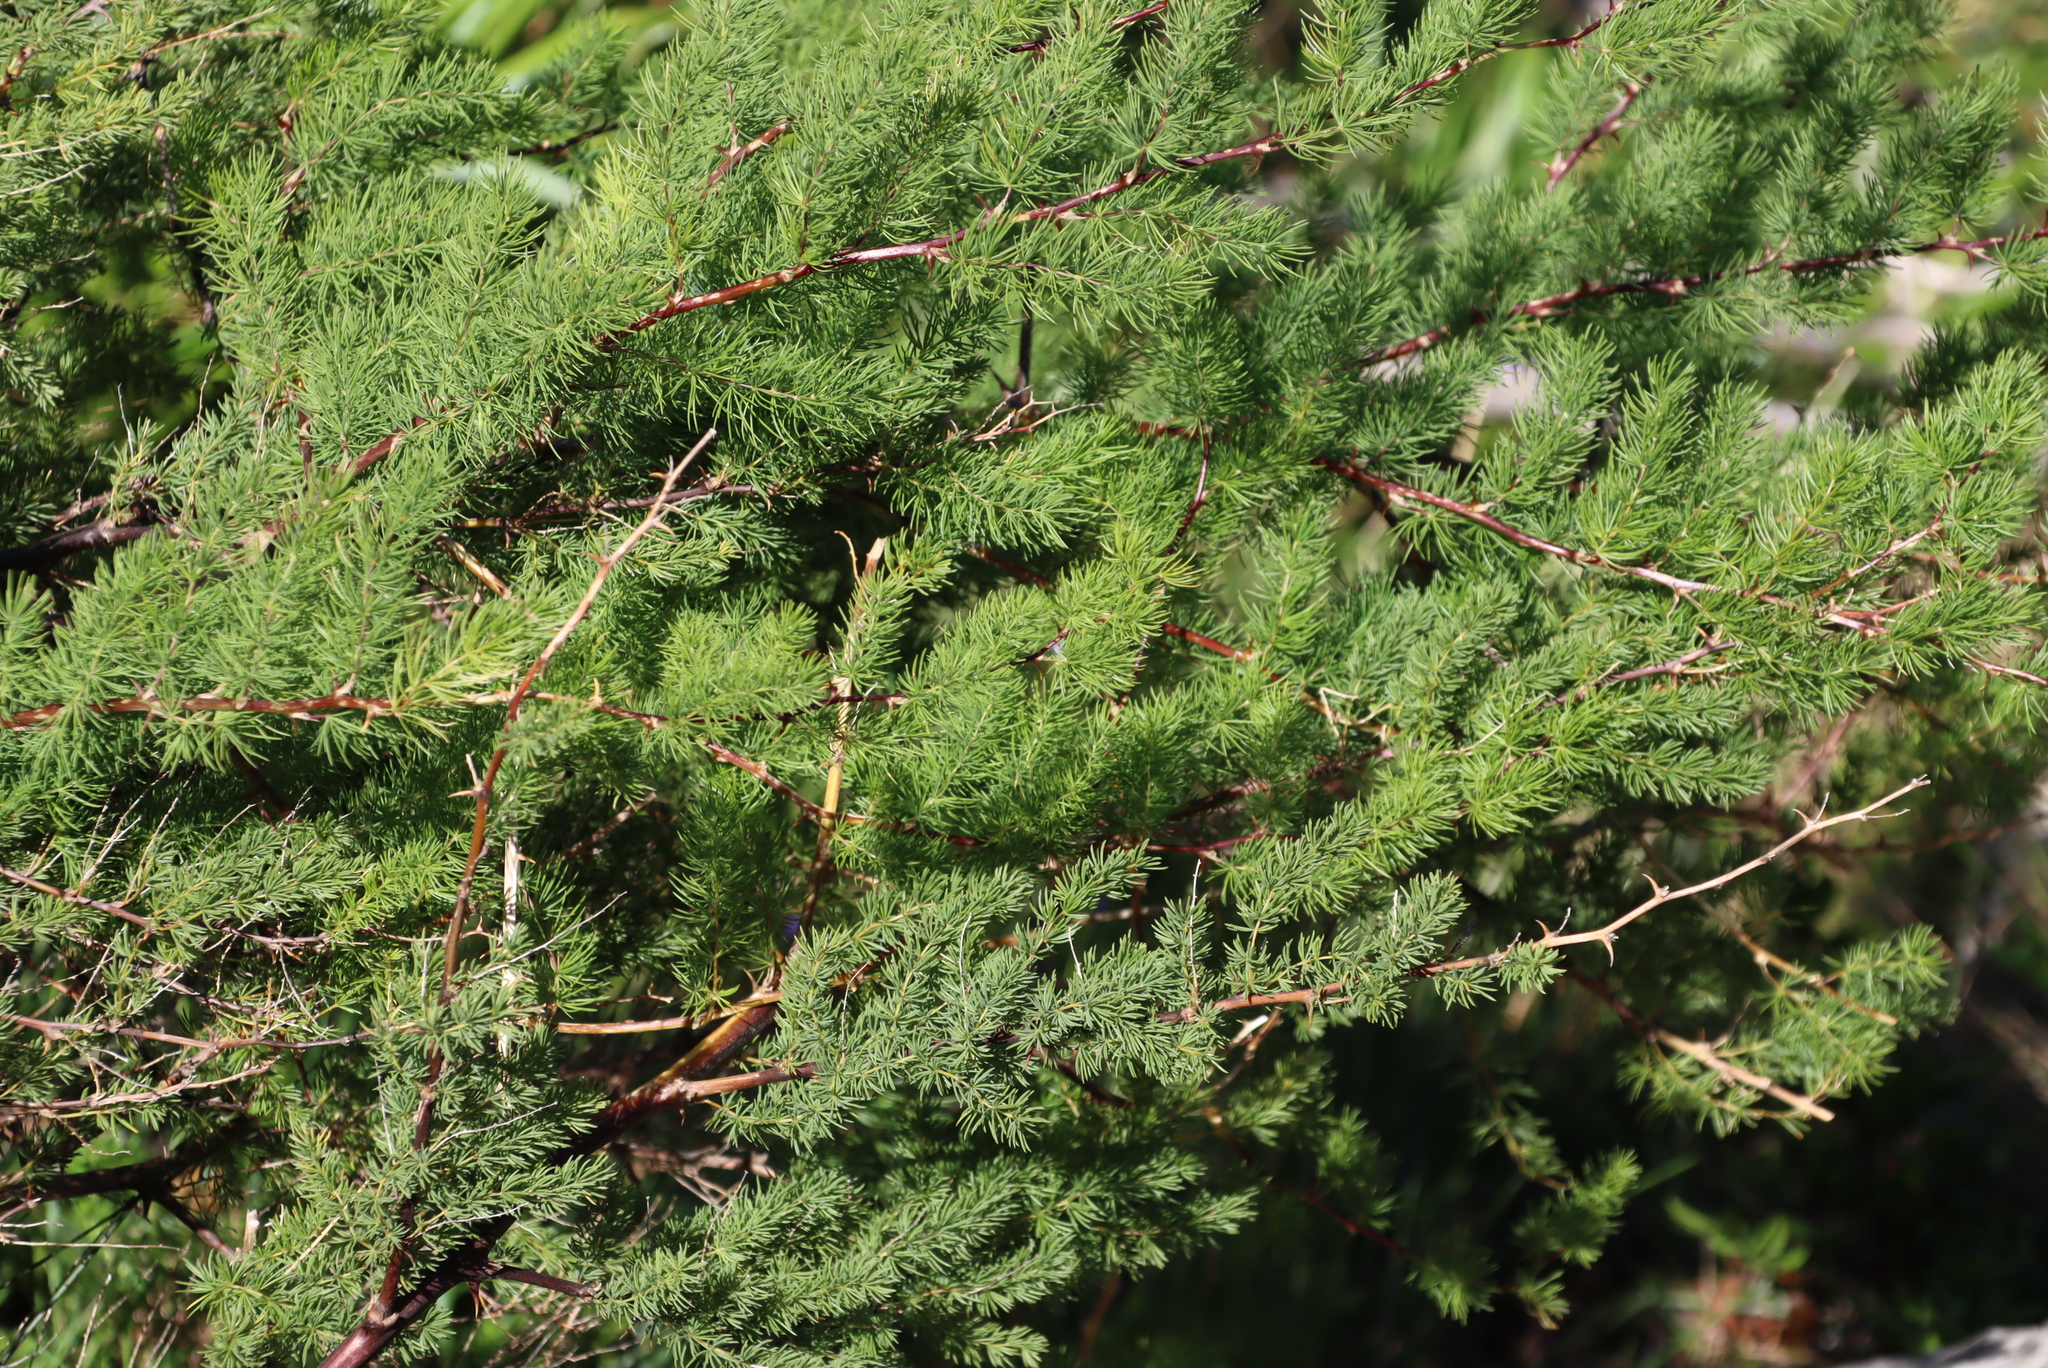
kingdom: Plantae
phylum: Tracheophyta
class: Liliopsida
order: Asparagales
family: Asparagaceae
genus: Asparagus
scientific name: Asparagus rubicundus
